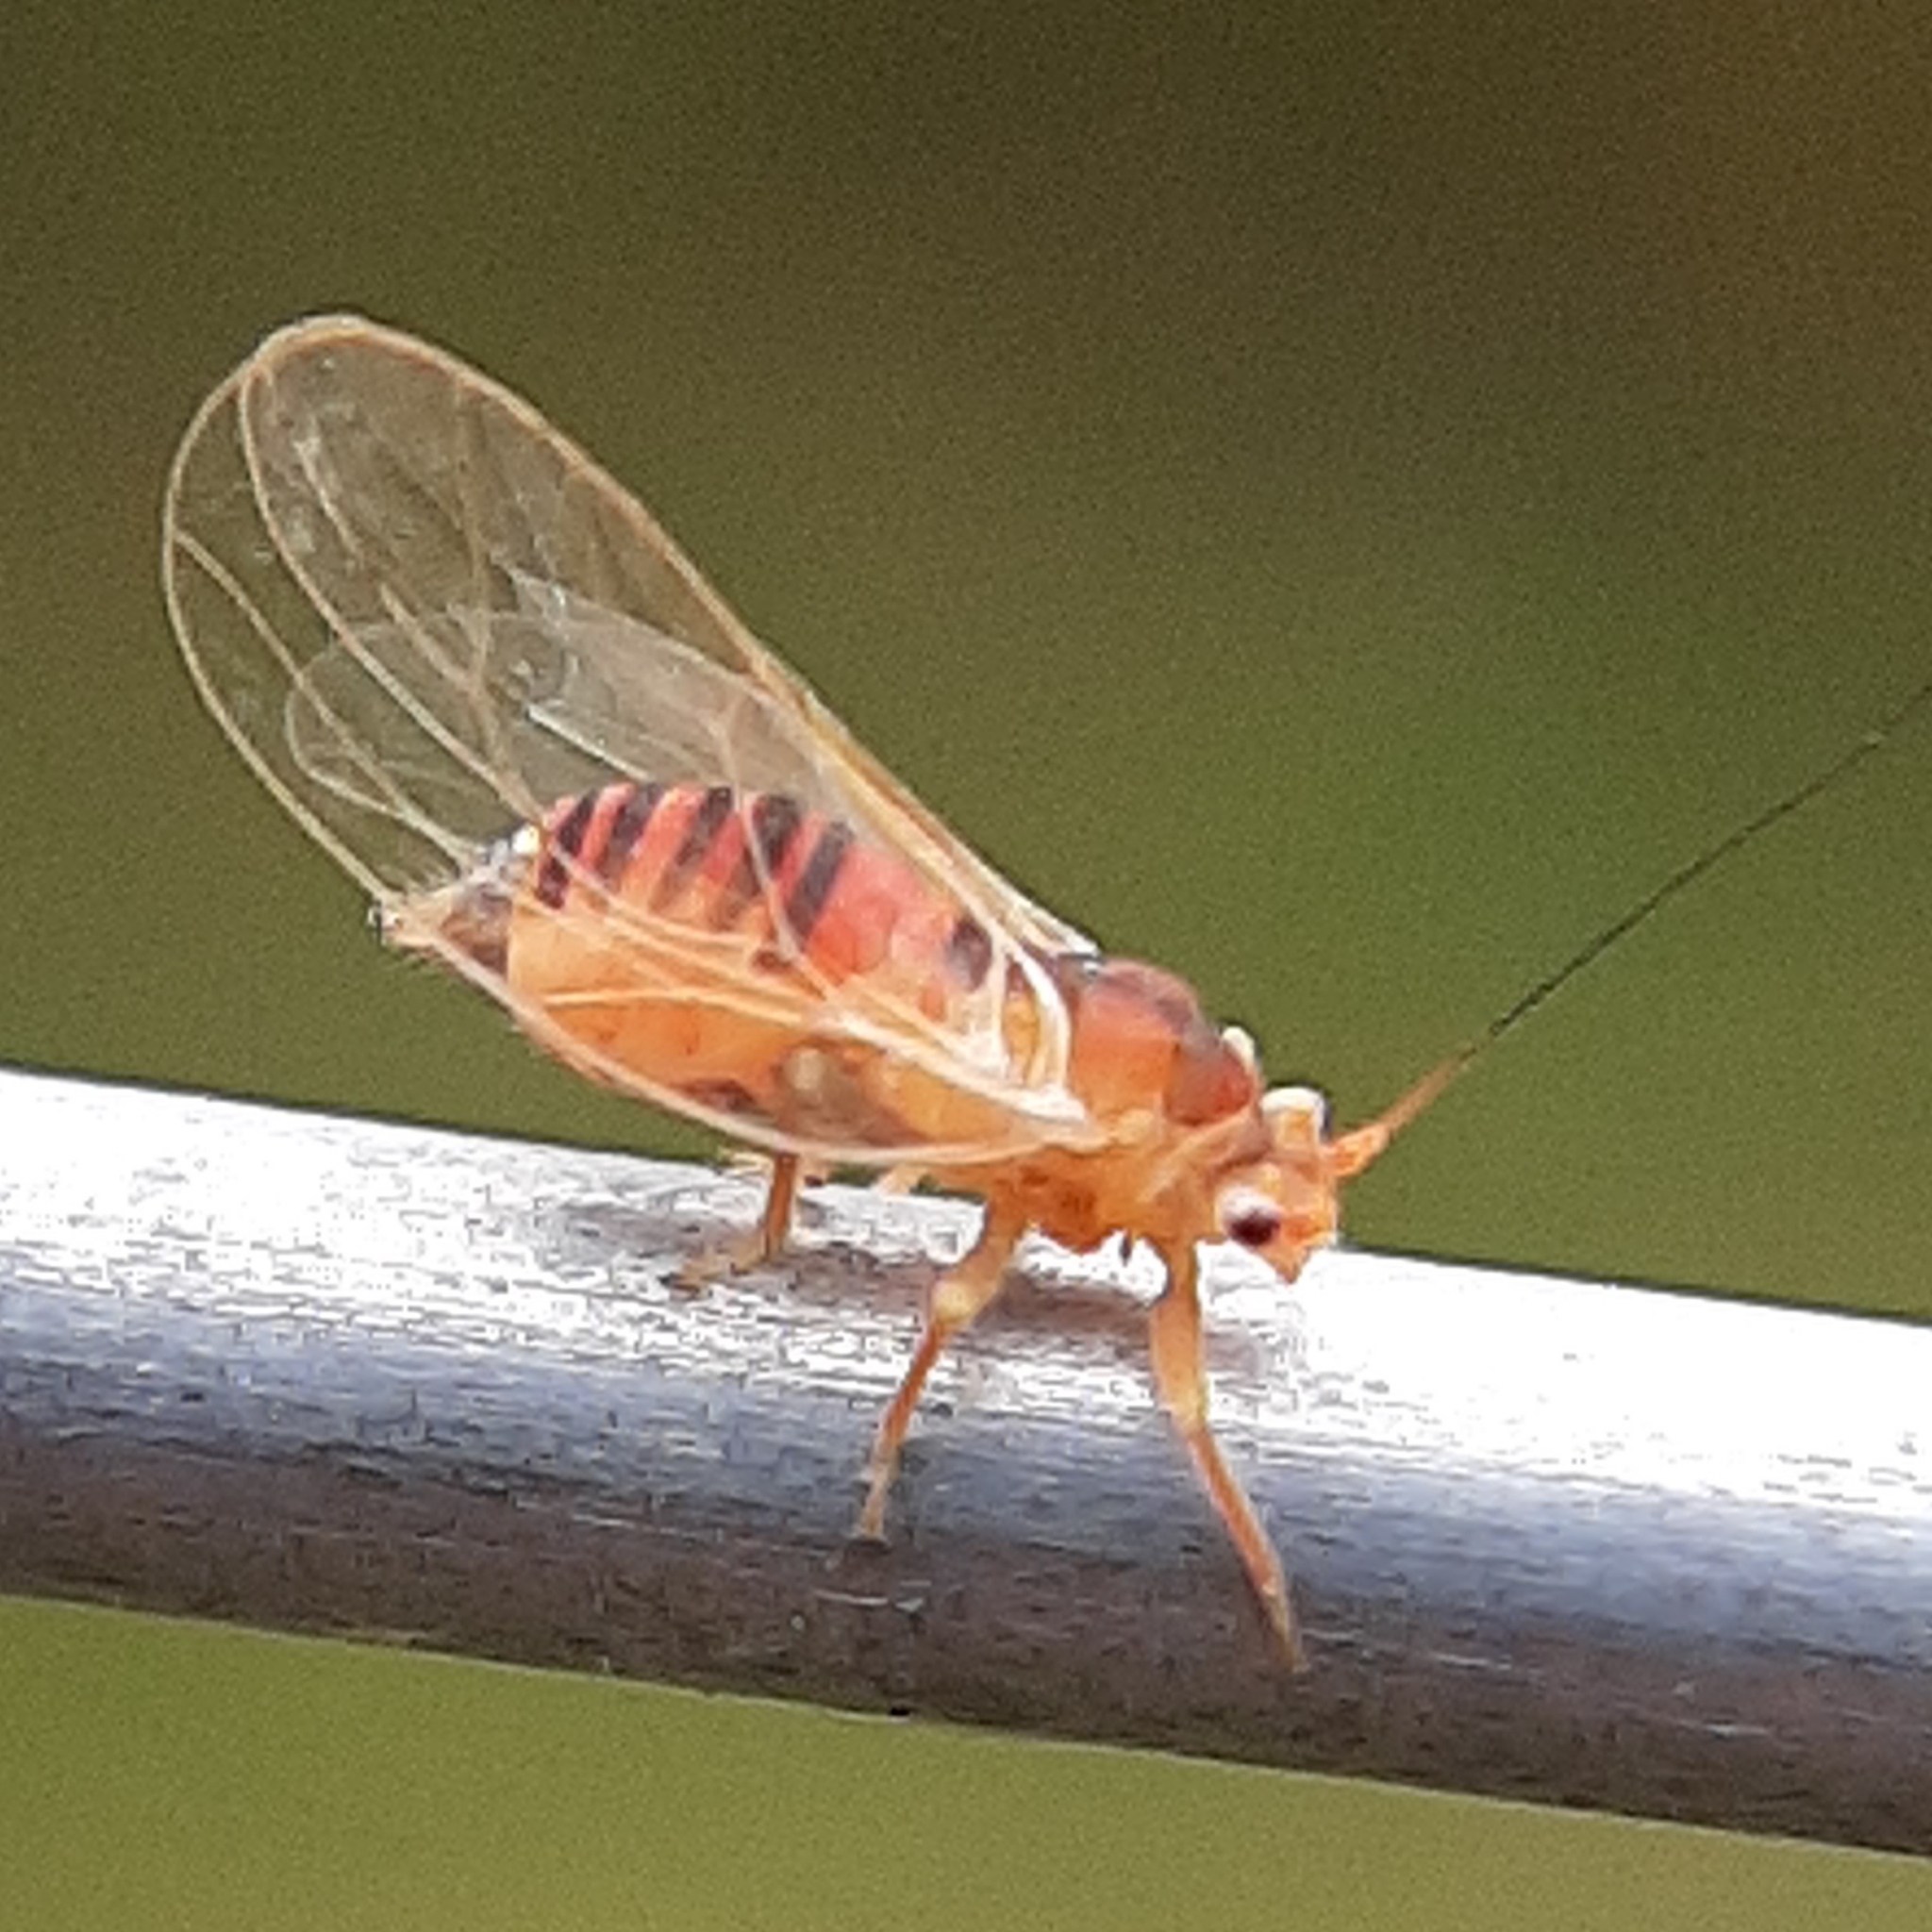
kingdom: Animalia
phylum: Arthropoda
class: Insecta
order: Hemiptera
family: Psyllidae
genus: Psylla
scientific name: Psylla sanguinea
